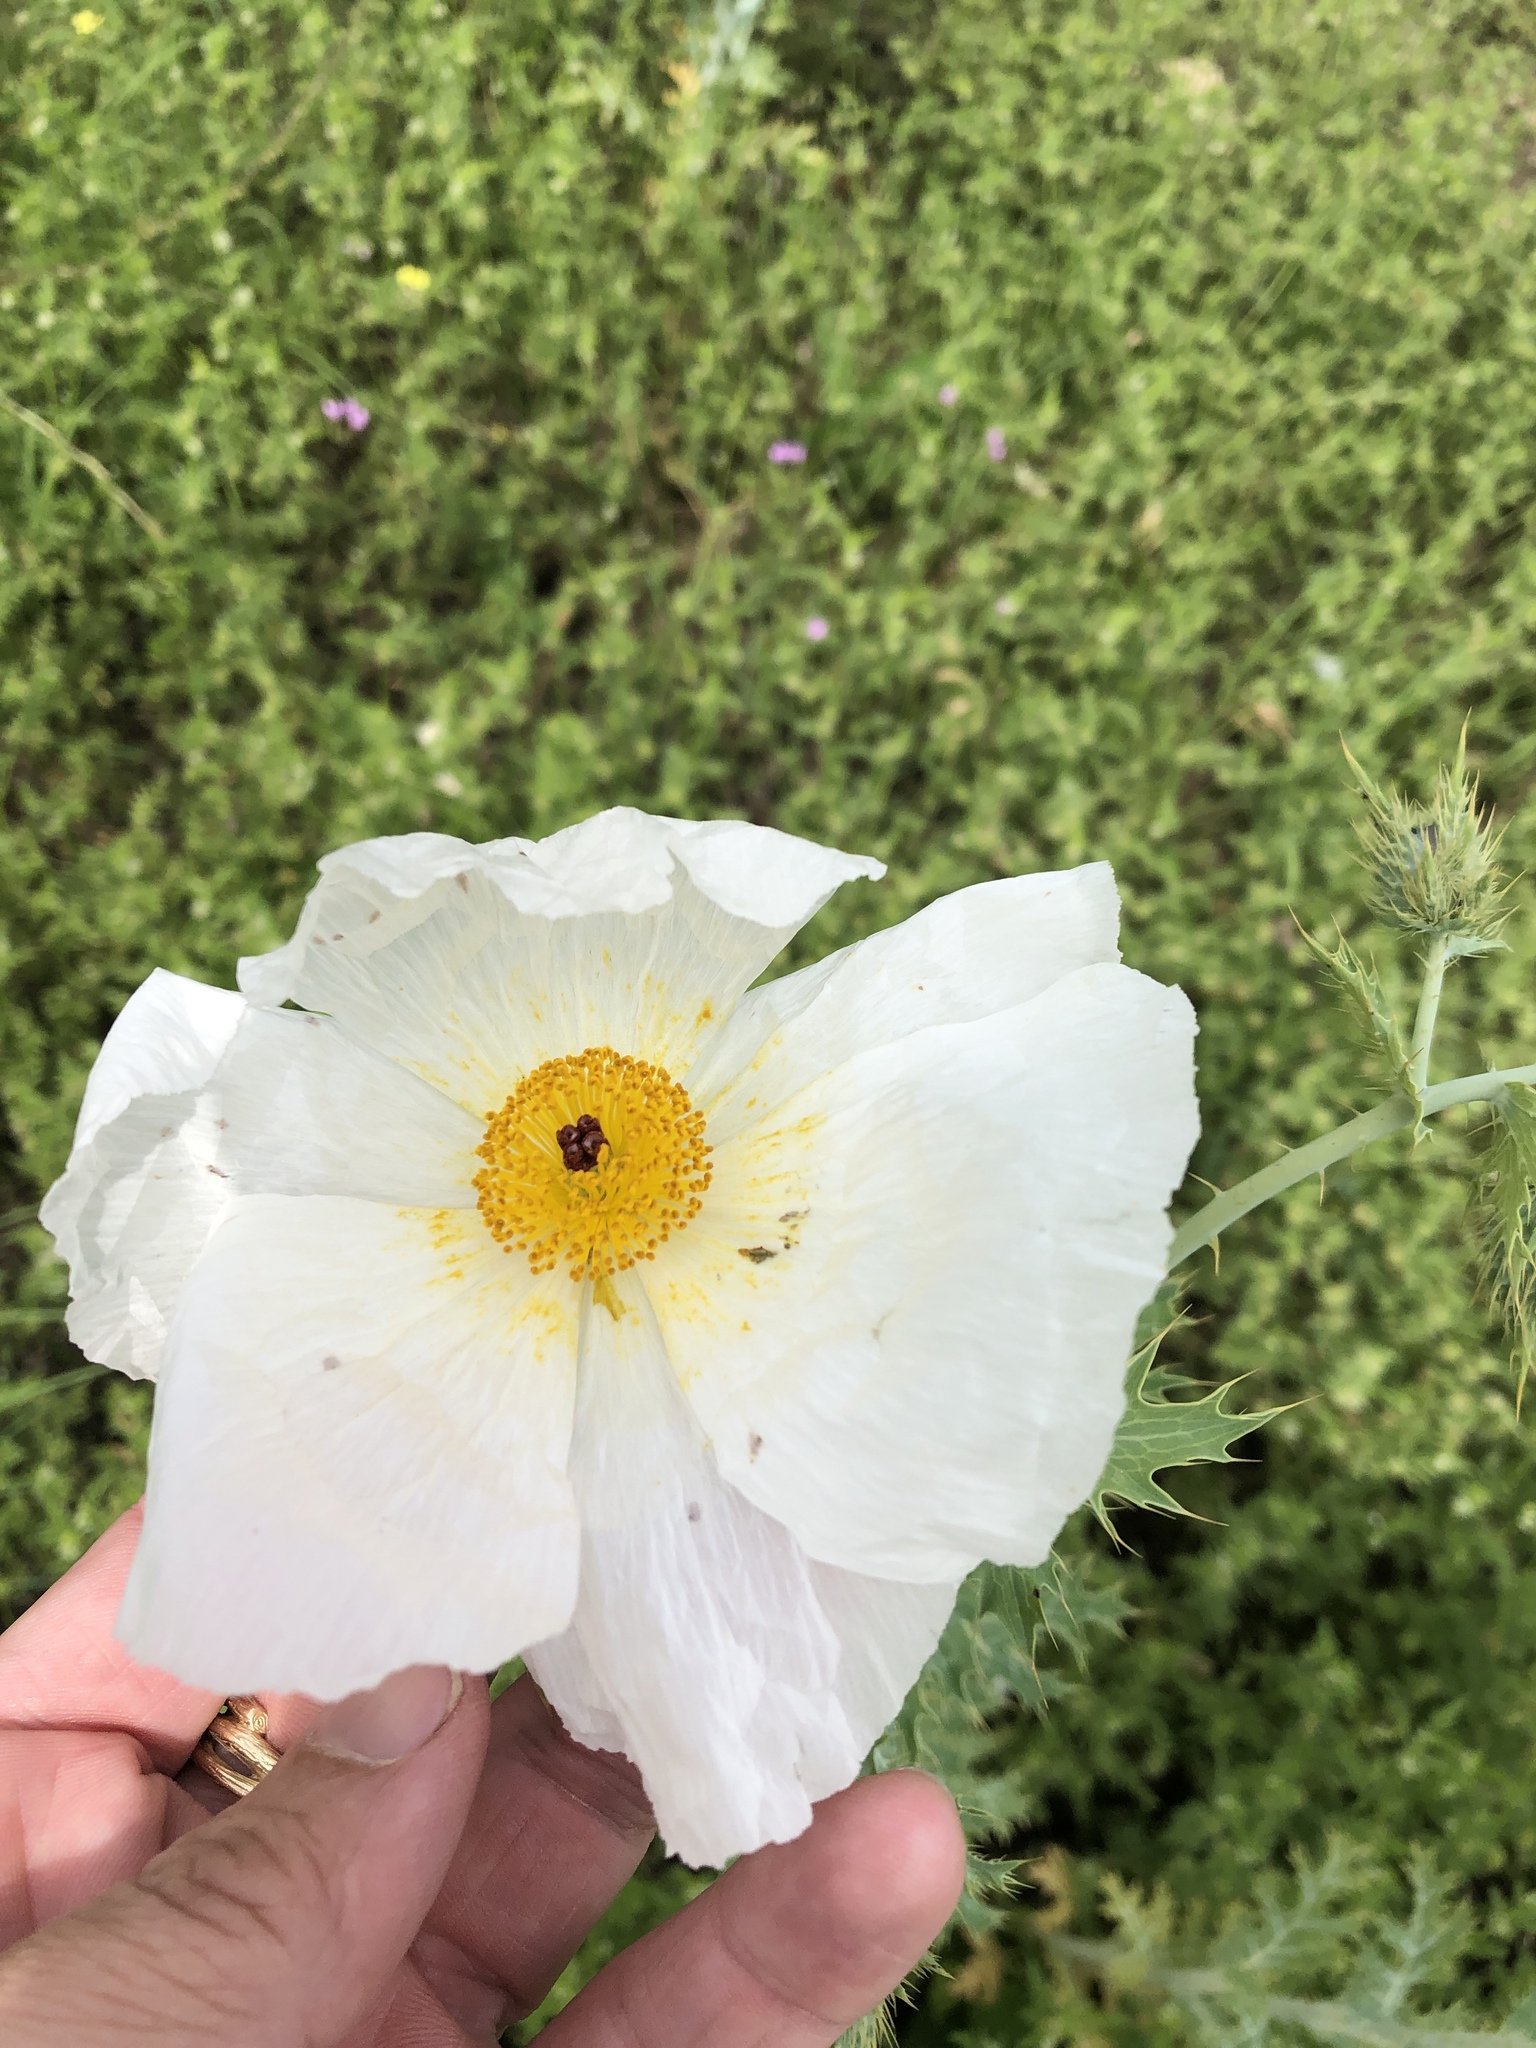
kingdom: Plantae
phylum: Tracheophyta
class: Magnoliopsida
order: Ranunculales
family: Papaveraceae
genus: Argemone
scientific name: Argemone albiflora
